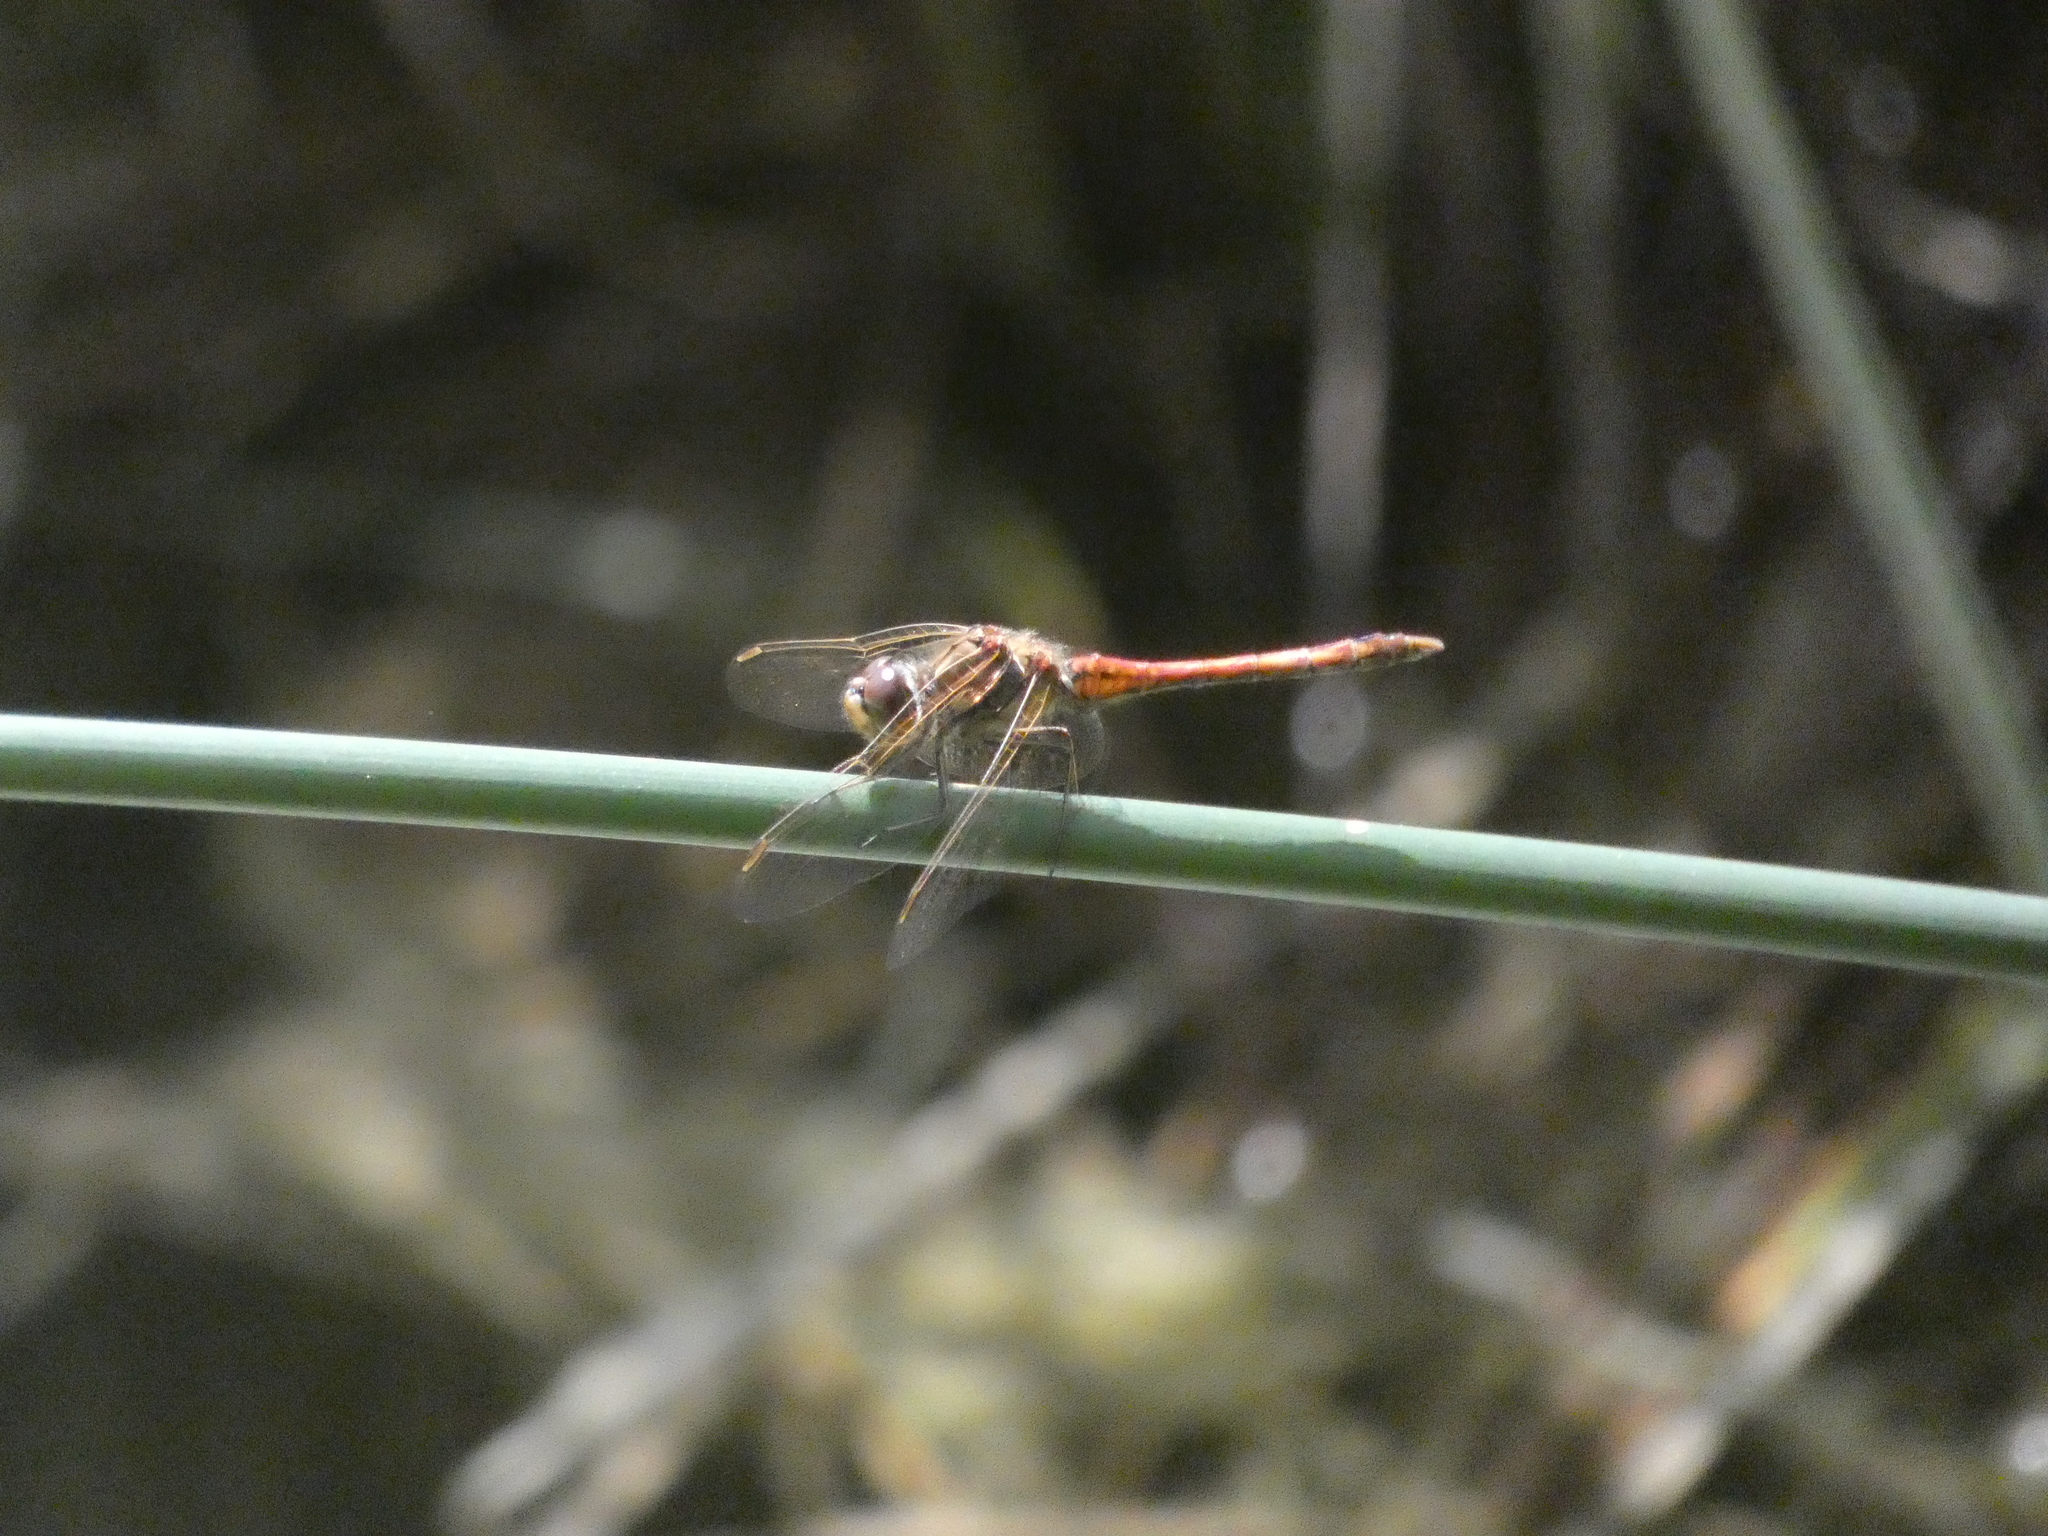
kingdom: Animalia
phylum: Arthropoda
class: Insecta
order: Odonata
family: Libellulidae
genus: Sympetrum
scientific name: Sympetrum vulgatum
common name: Vagrant darter
